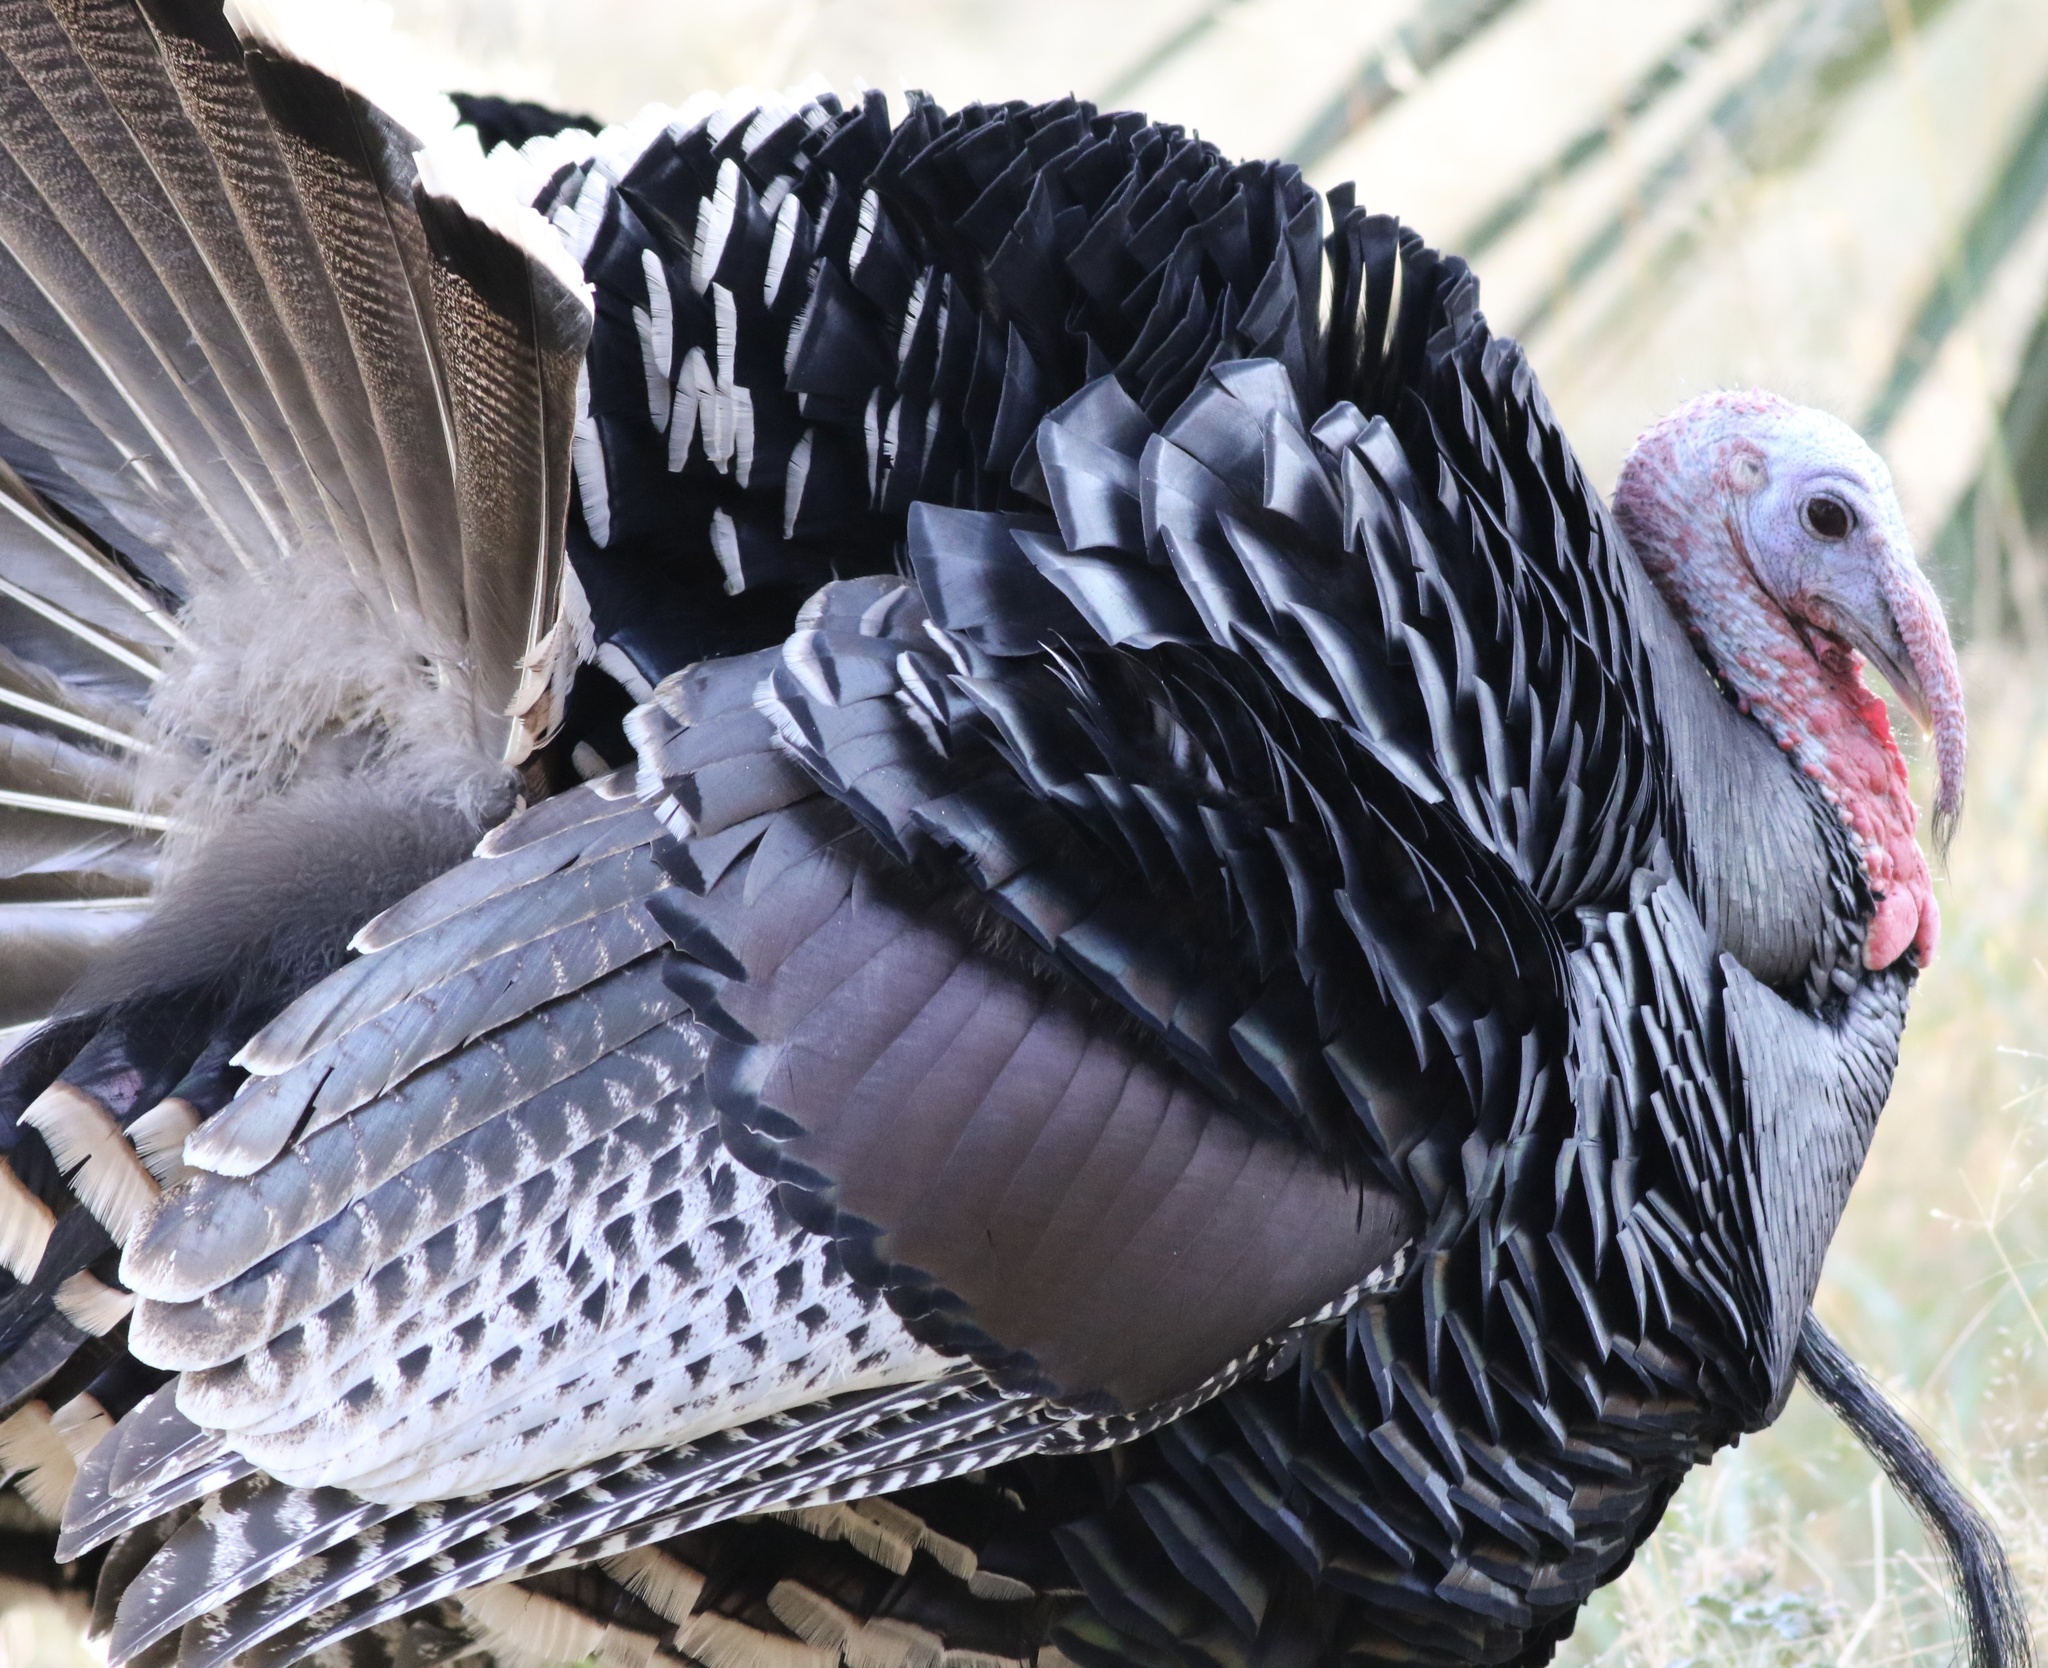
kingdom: Animalia
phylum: Chordata
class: Aves
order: Galliformes
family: Phasianidae
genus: Meleagris
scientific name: Meleagris gallopavo
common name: Wild turkey
